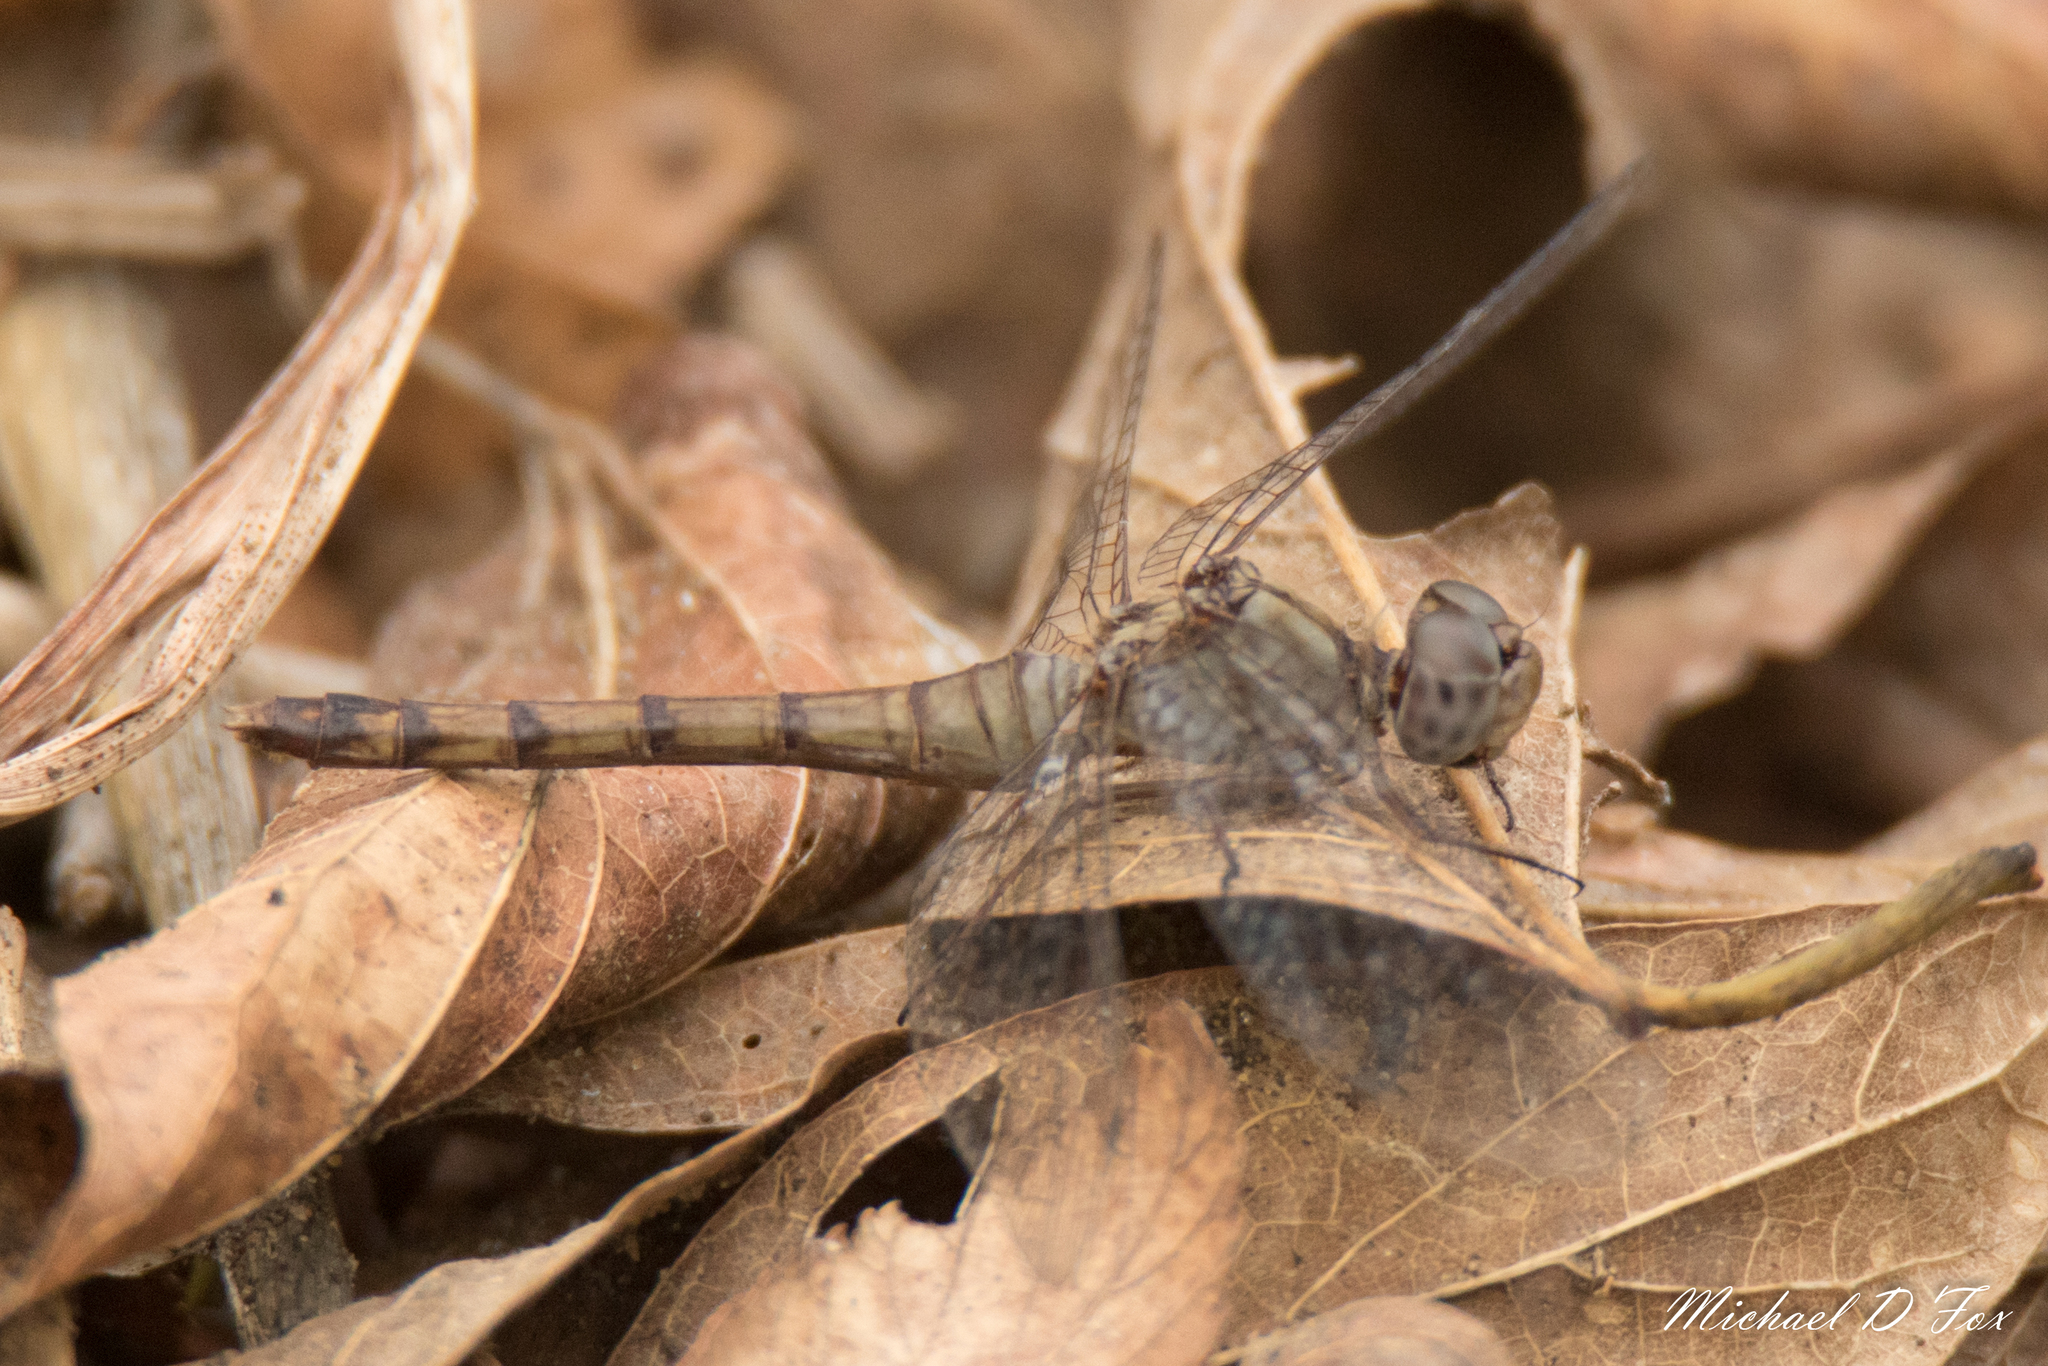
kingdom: Animalia
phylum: Arthropoda
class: Insecta
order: Odonata
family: Libellulidae
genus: Sympetrum
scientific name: Sympetrum ambiguum
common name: Blue-faced meadowhawk
